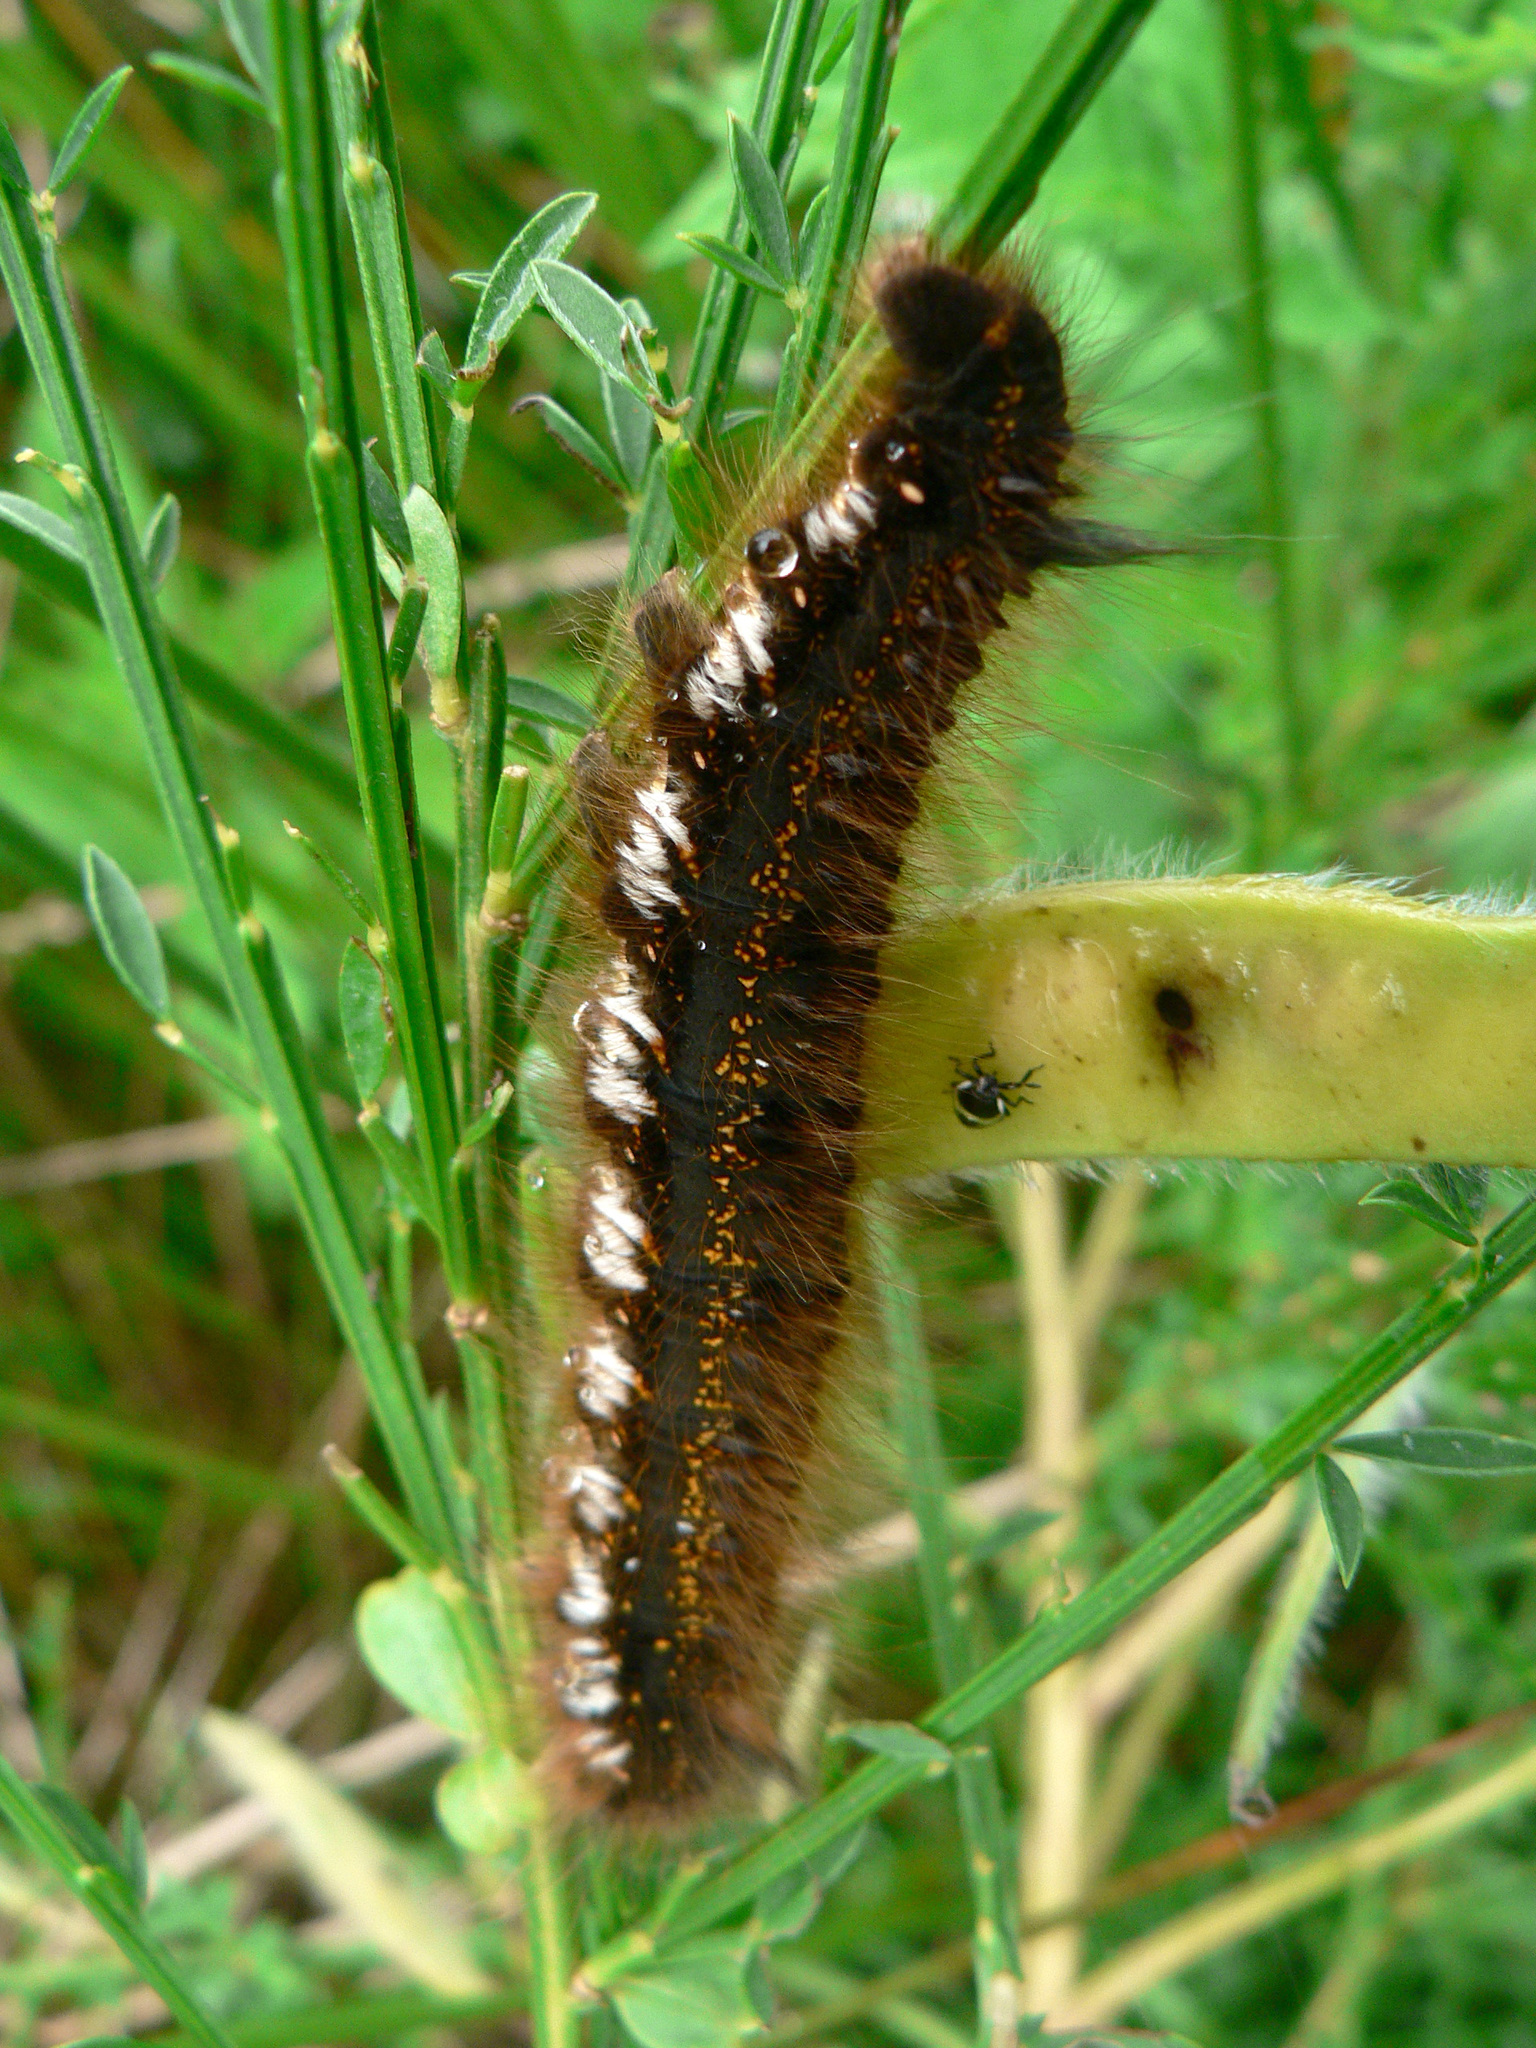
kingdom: Animalia
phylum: Arthropoda
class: Insecta
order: Lepidoptera
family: Lasiocampidae
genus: Euthrix
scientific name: Euthrix potatoria
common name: Drinker
